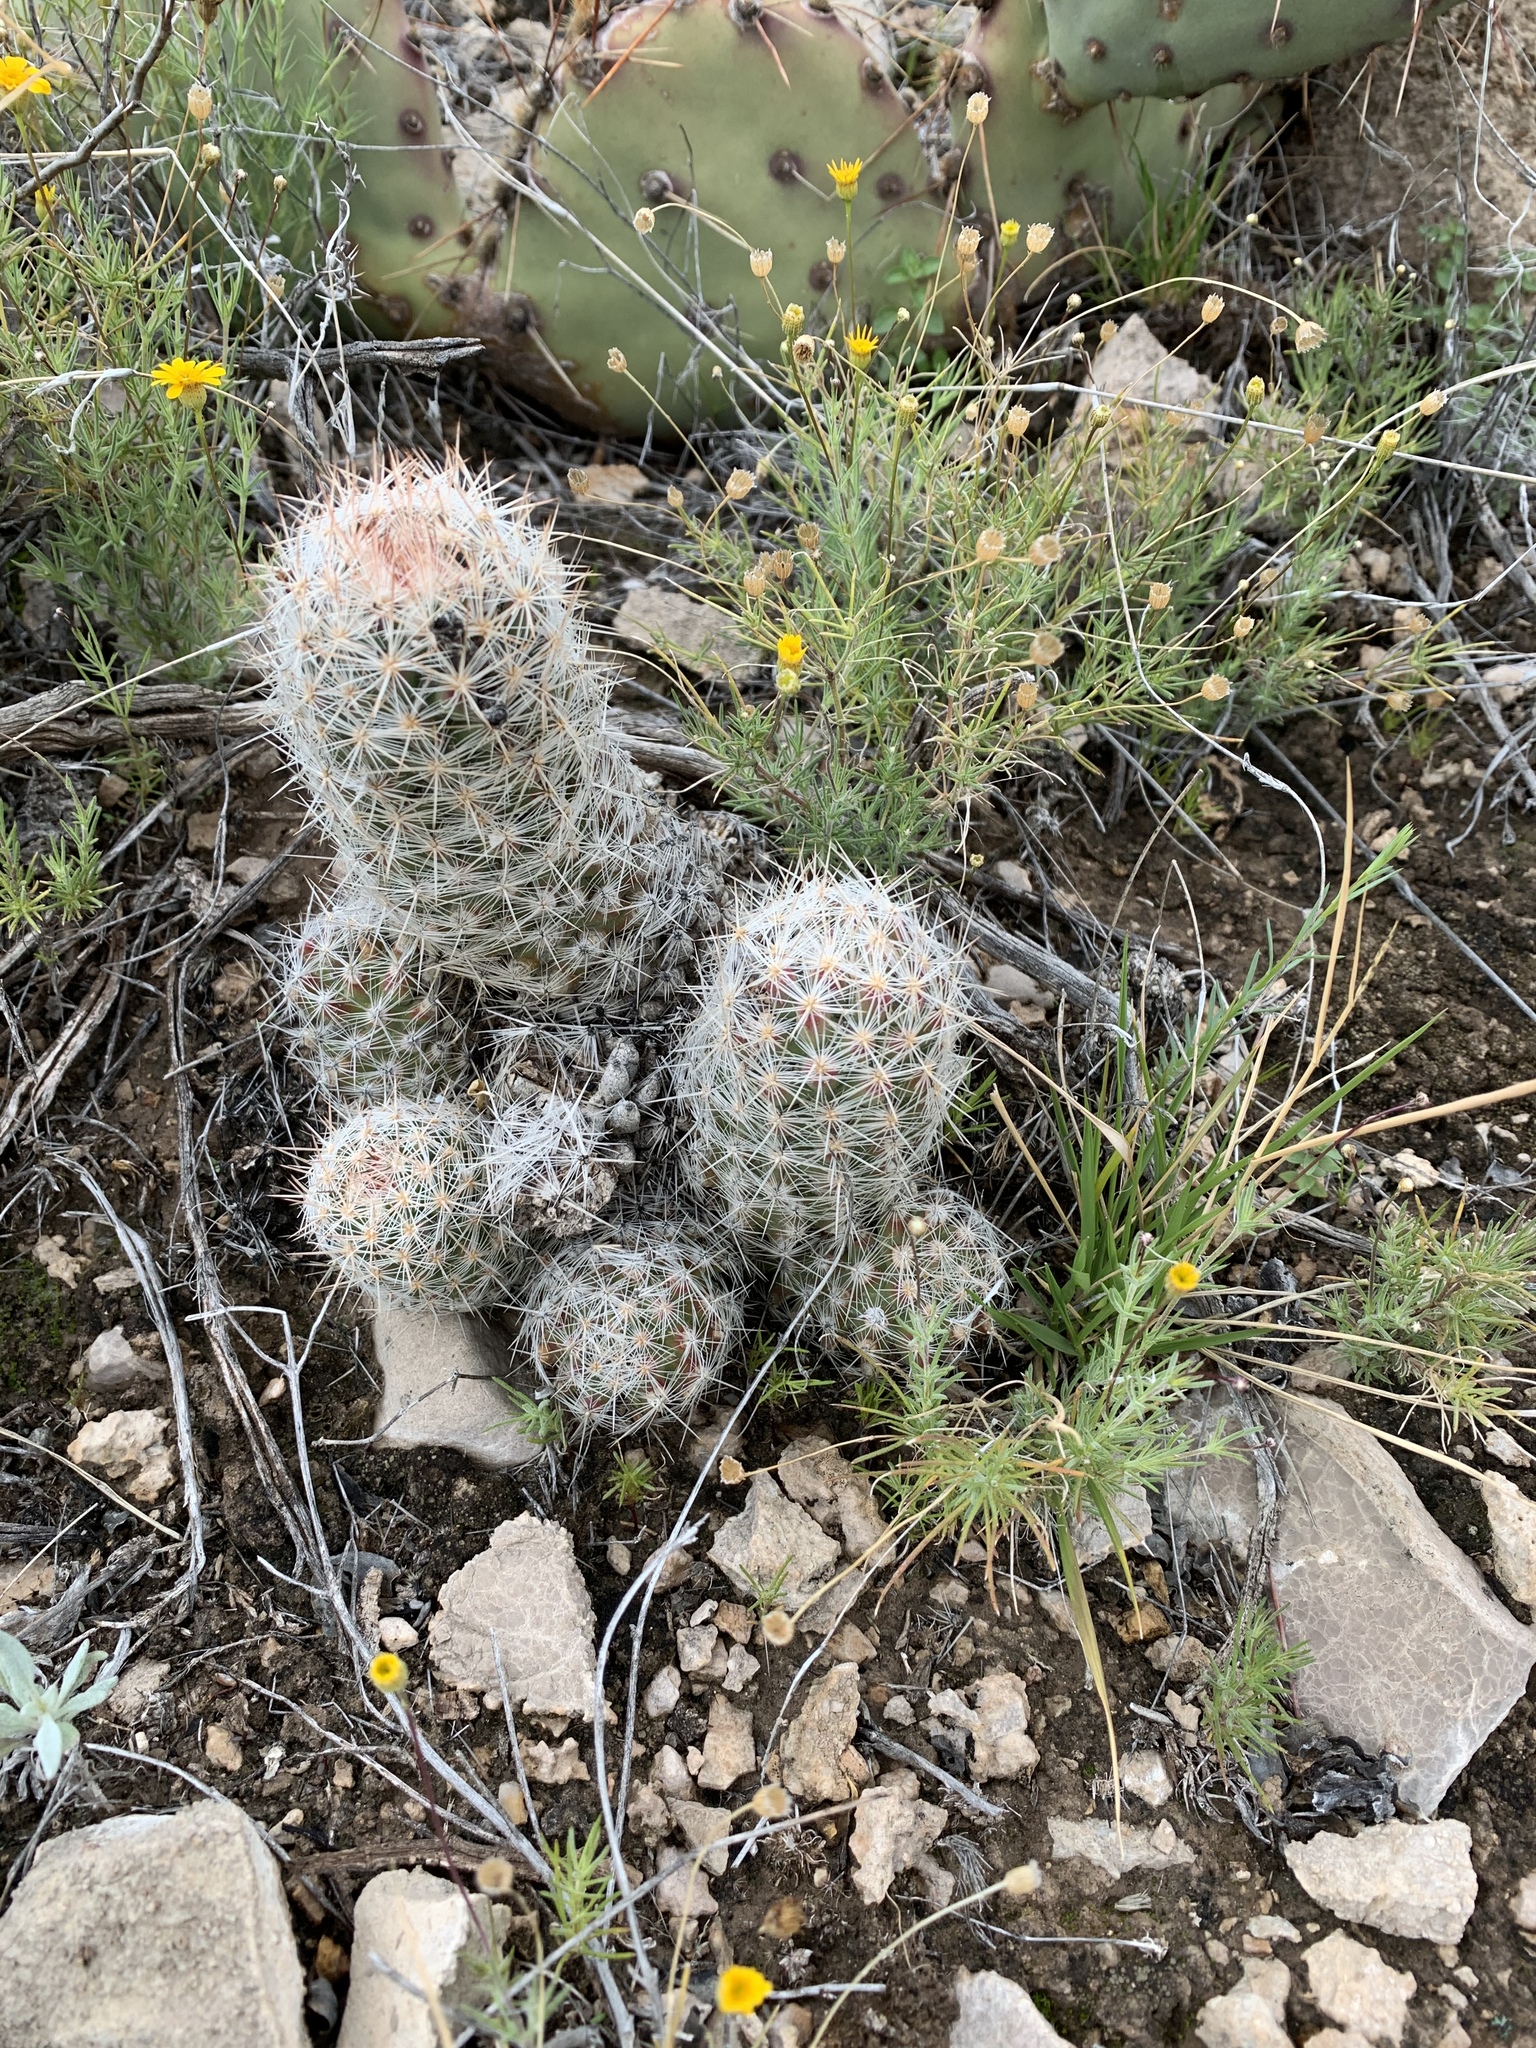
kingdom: Plantae
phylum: Tracheophyta
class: Magnoliopsida
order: Caryophyllales
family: Cactaceae
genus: Pelecyphora
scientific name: Pelecyphora tuberculosa
